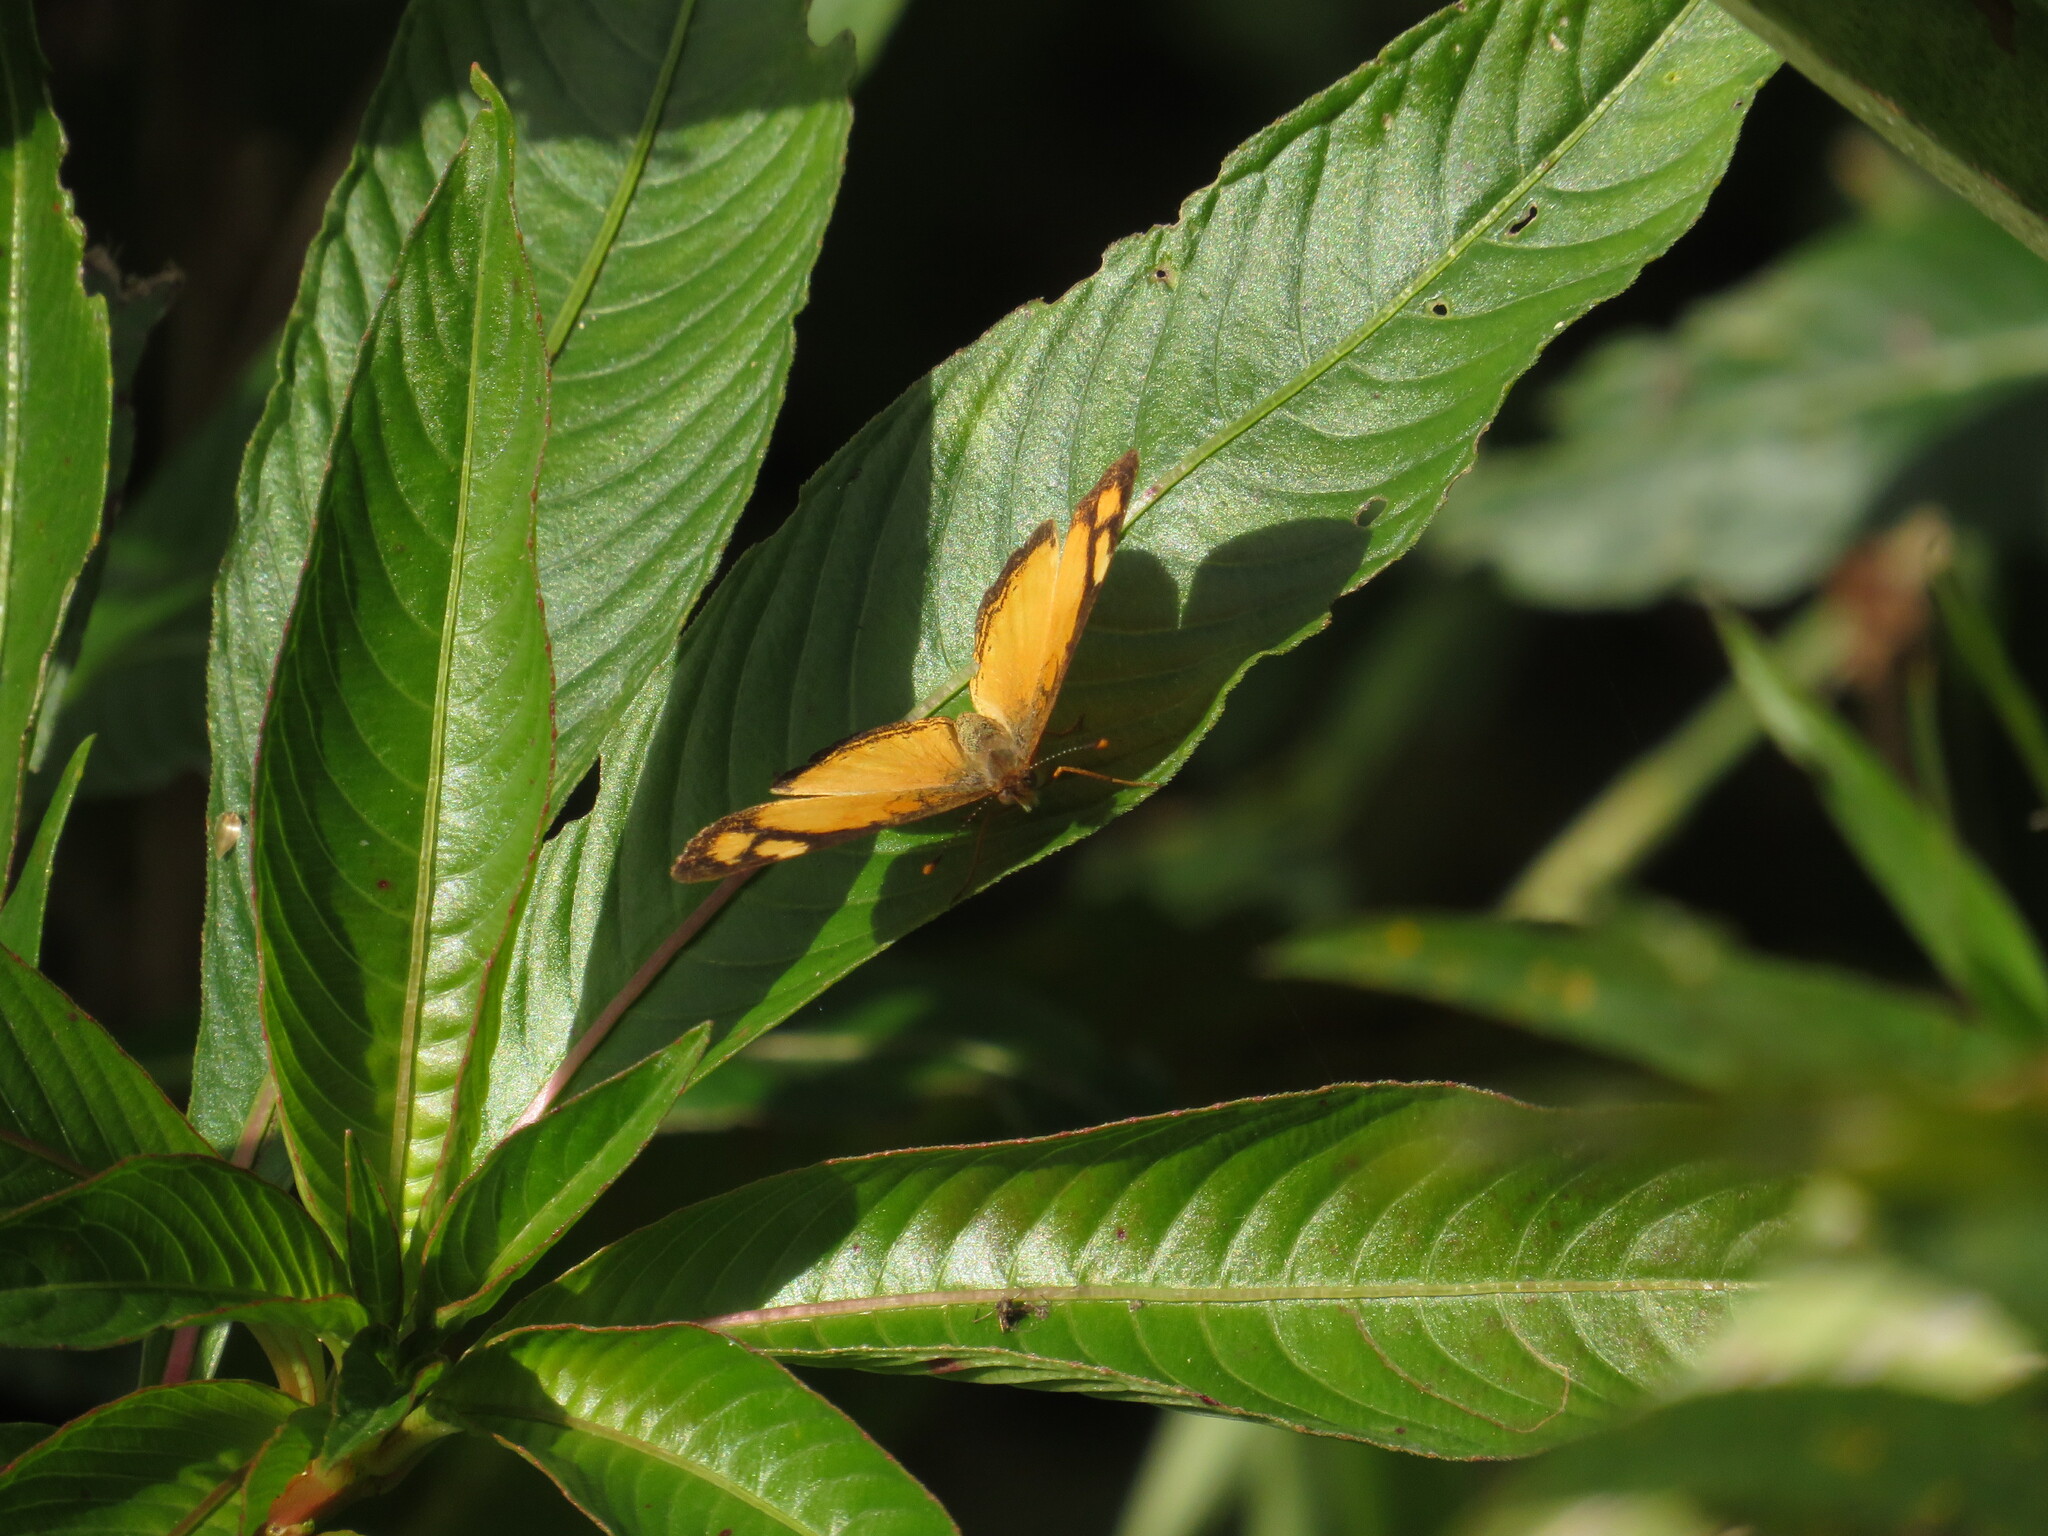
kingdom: Animalia
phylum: Arthropoda
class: Insecta
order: Lepidoptera
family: Nymphalidae
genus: Tegosa
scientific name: Tegosa claudina
